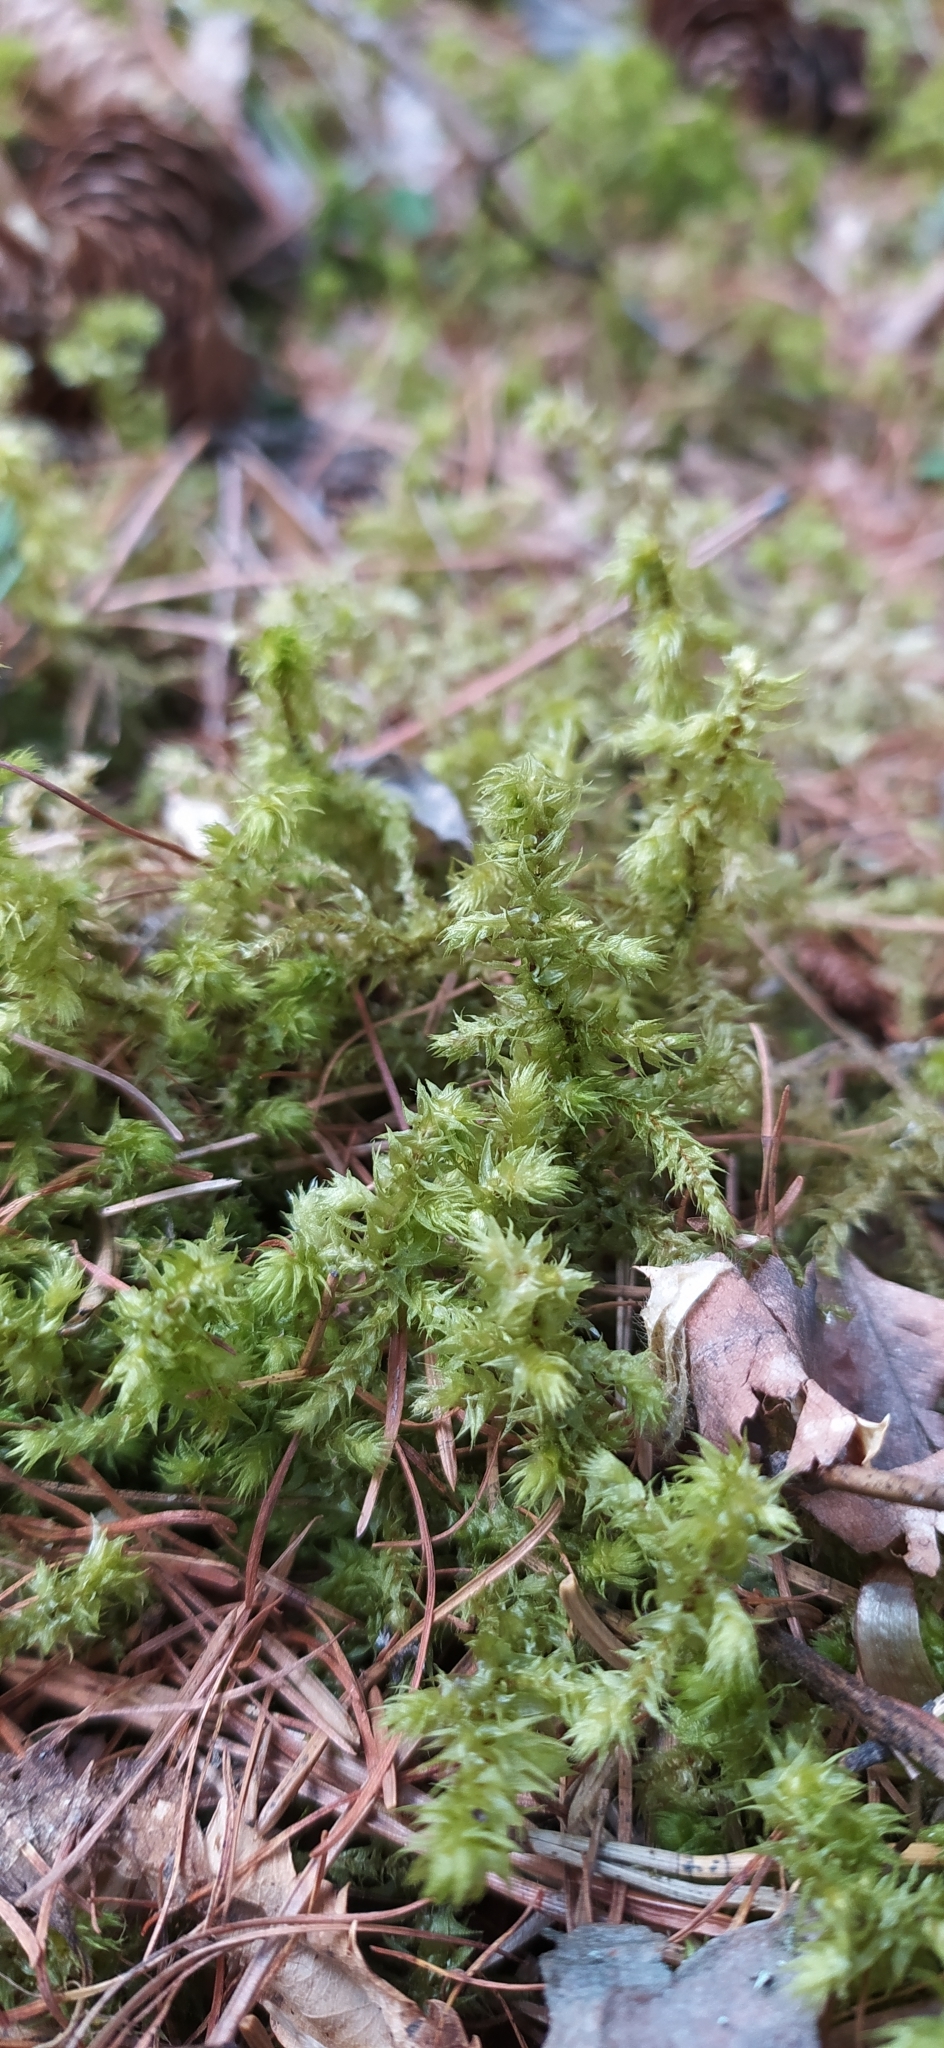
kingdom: Plantae
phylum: Bryophyta
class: Bryopsida
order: Hypnales
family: Hylocomiaceae
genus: Hylocomiadelphus
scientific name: Hylocomiadelphus triquetrus
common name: Rough goose neck moss
